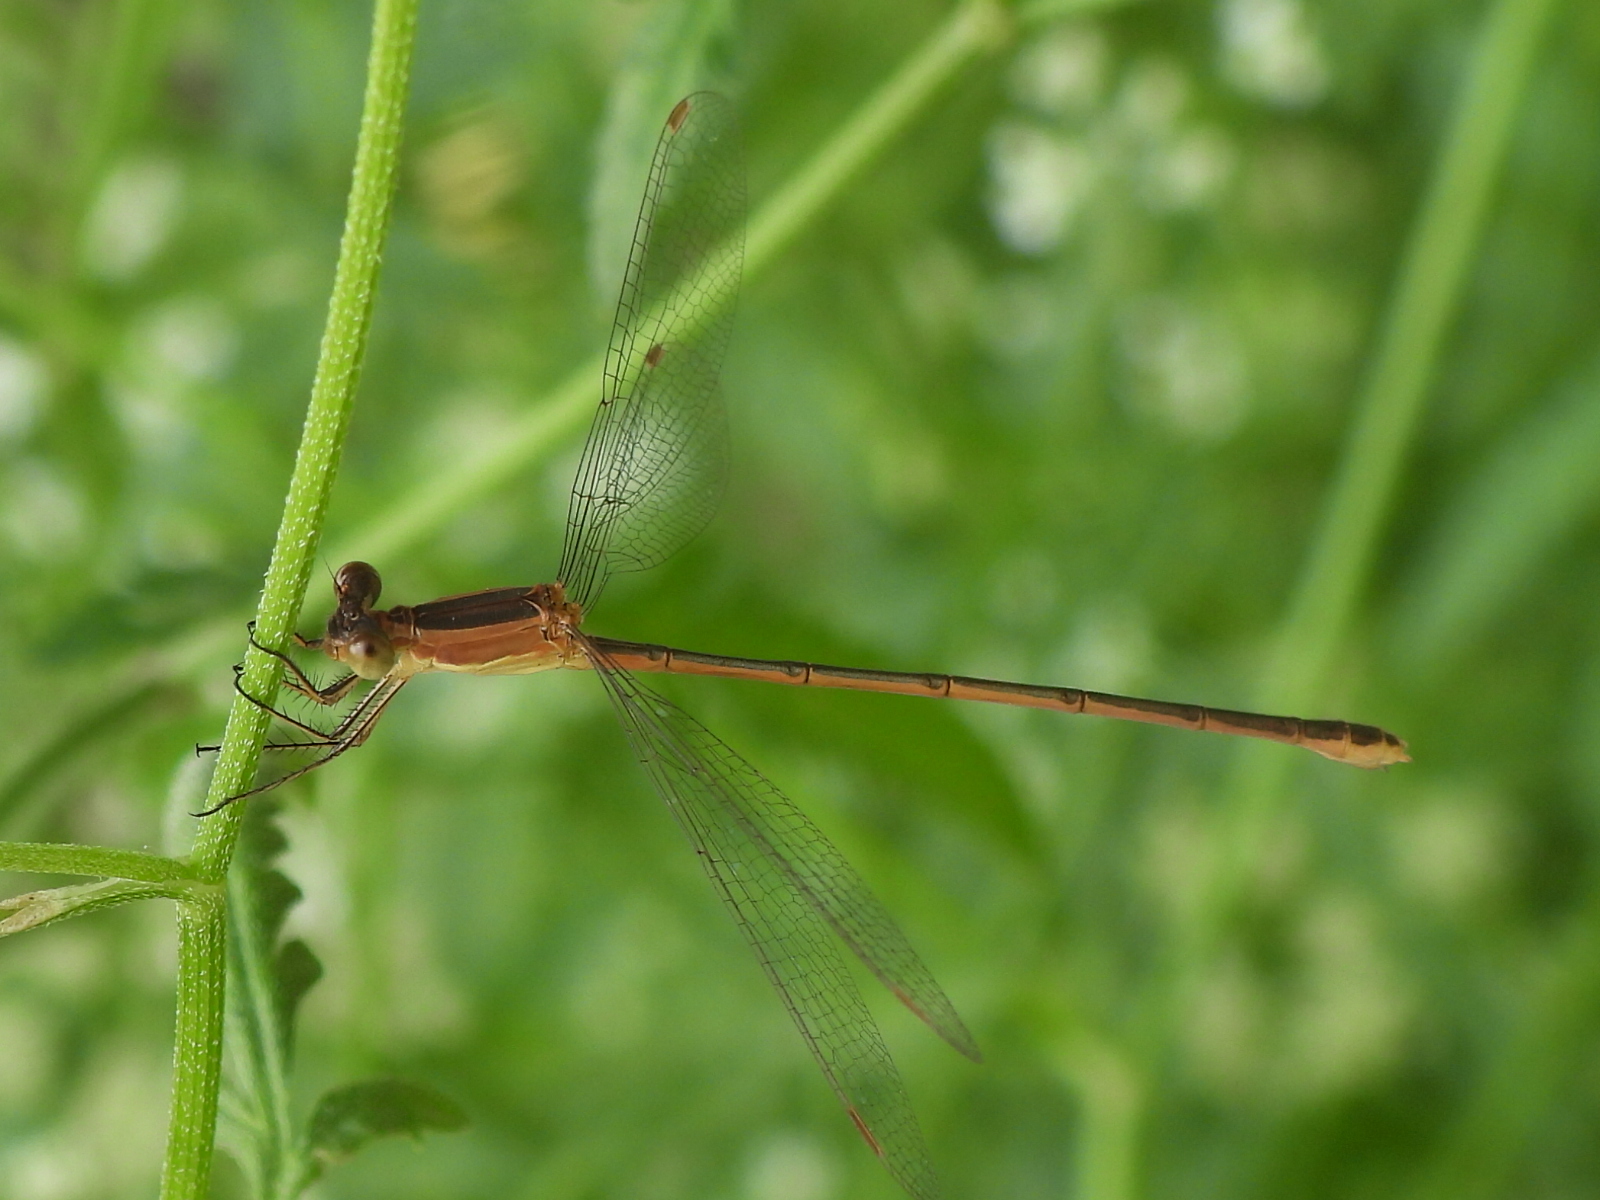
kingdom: Animalia
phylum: Arthropoda
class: Insecta
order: Odonata
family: Lestidae
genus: Lestes
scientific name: Lestes alacer
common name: Plateau spreadwing
